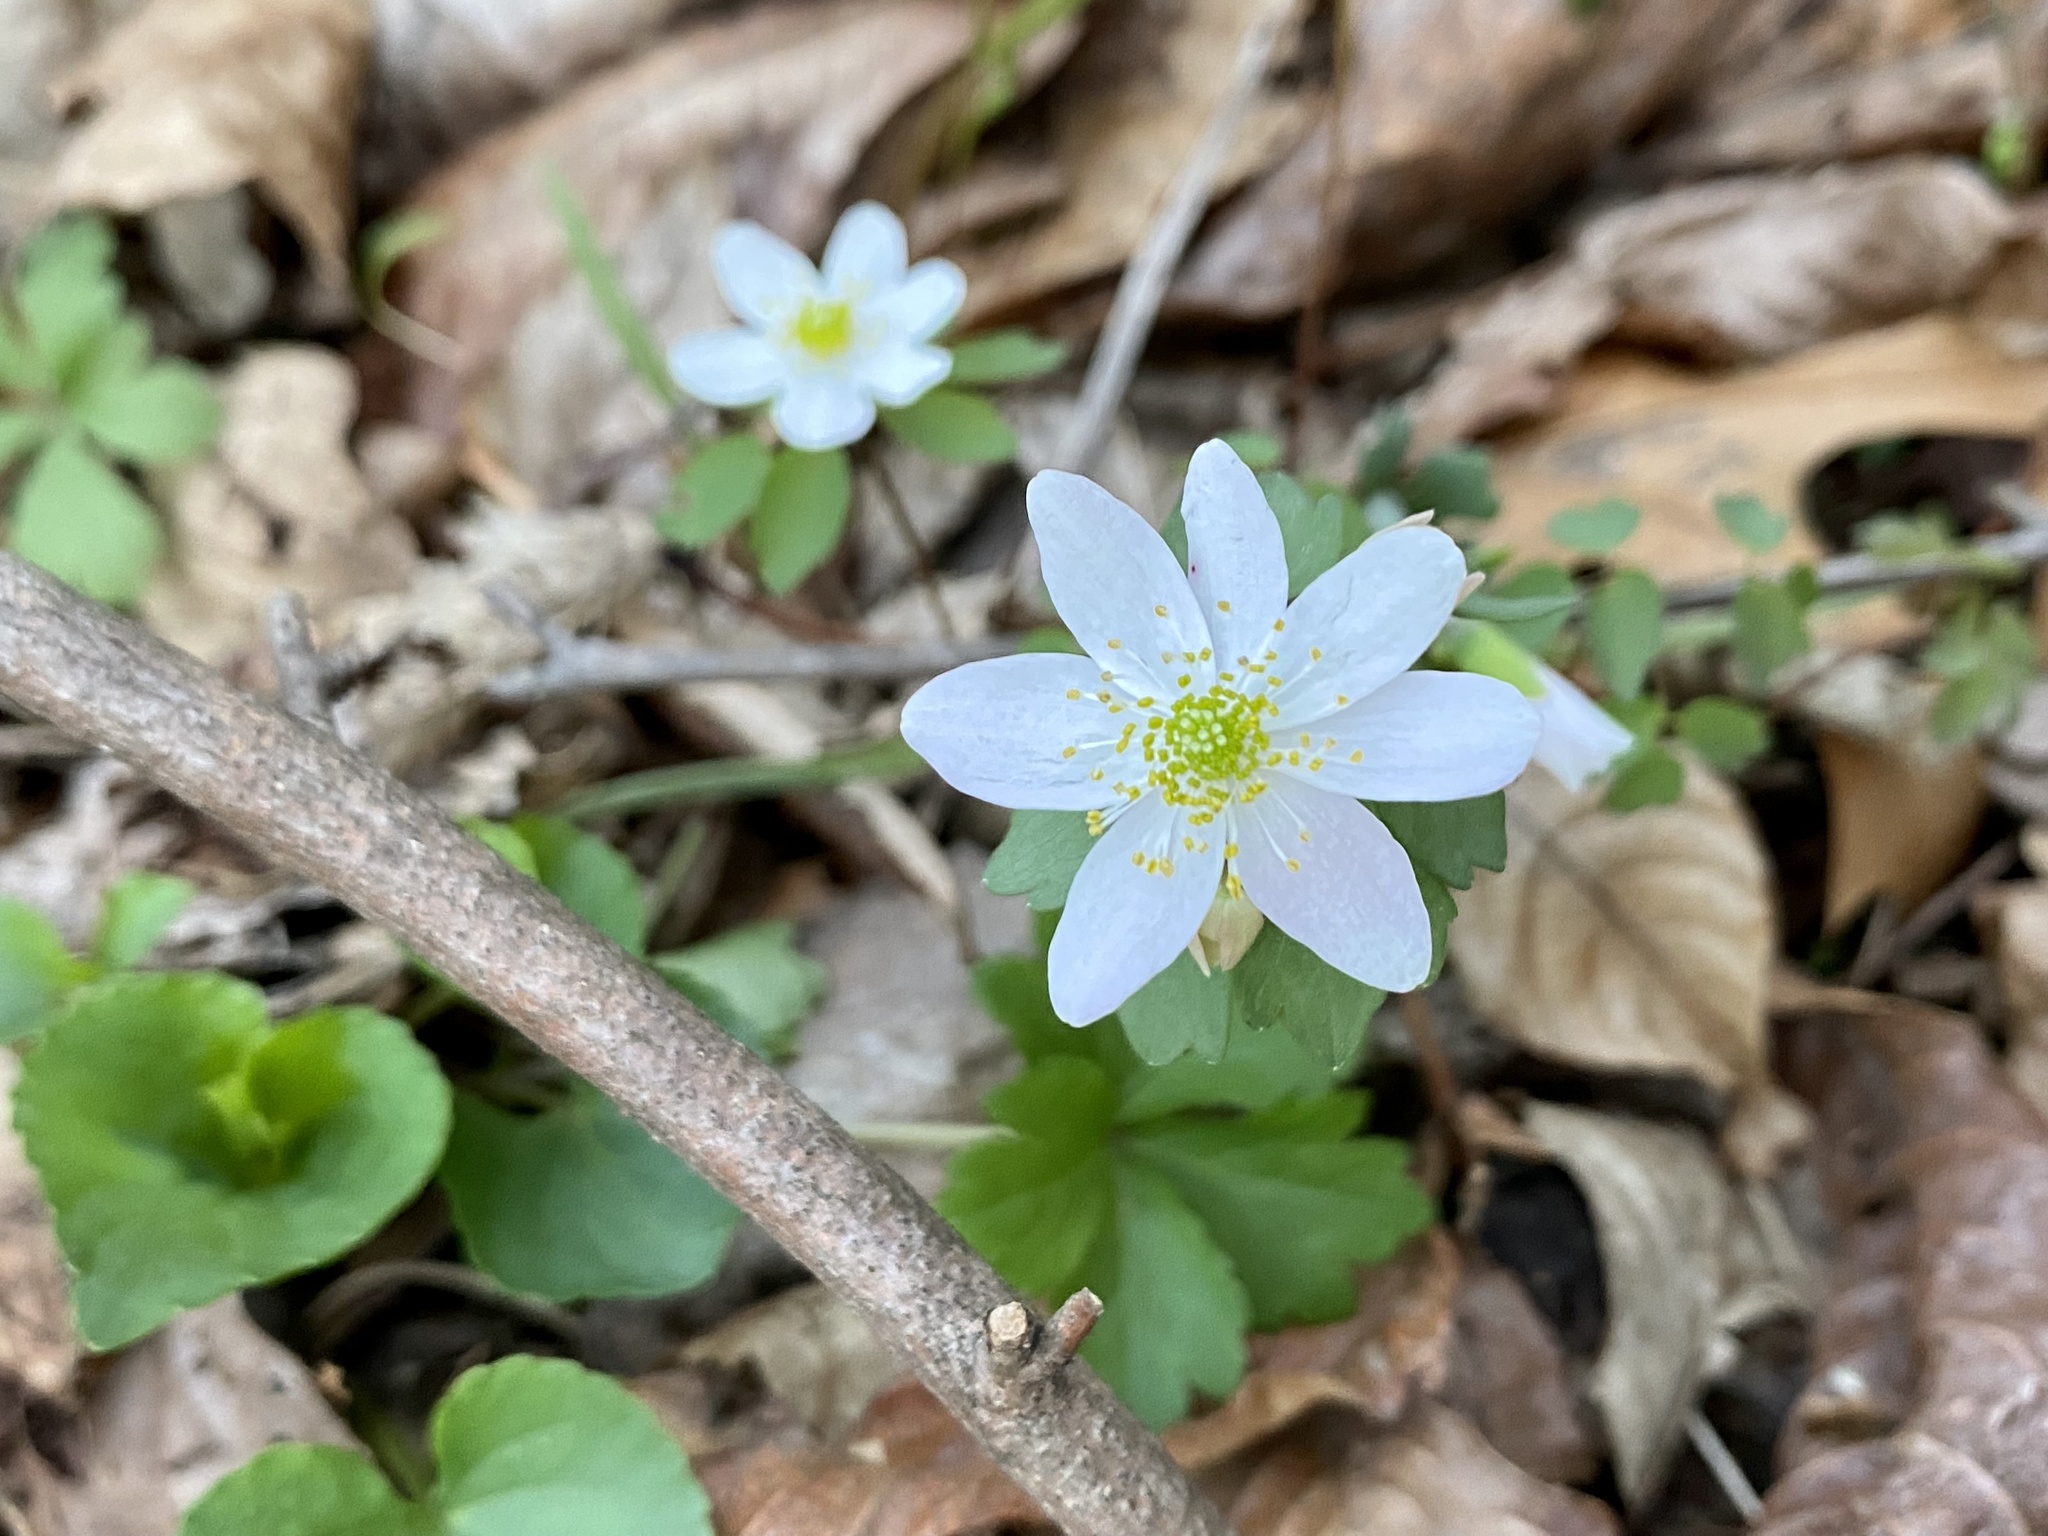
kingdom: Plantae
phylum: Tracheophyta
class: Magnoliopsida
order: Ranunculales
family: Ranunculaceae
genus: Thalictrum
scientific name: Thalictrum thalictroides
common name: Rue-anemone
